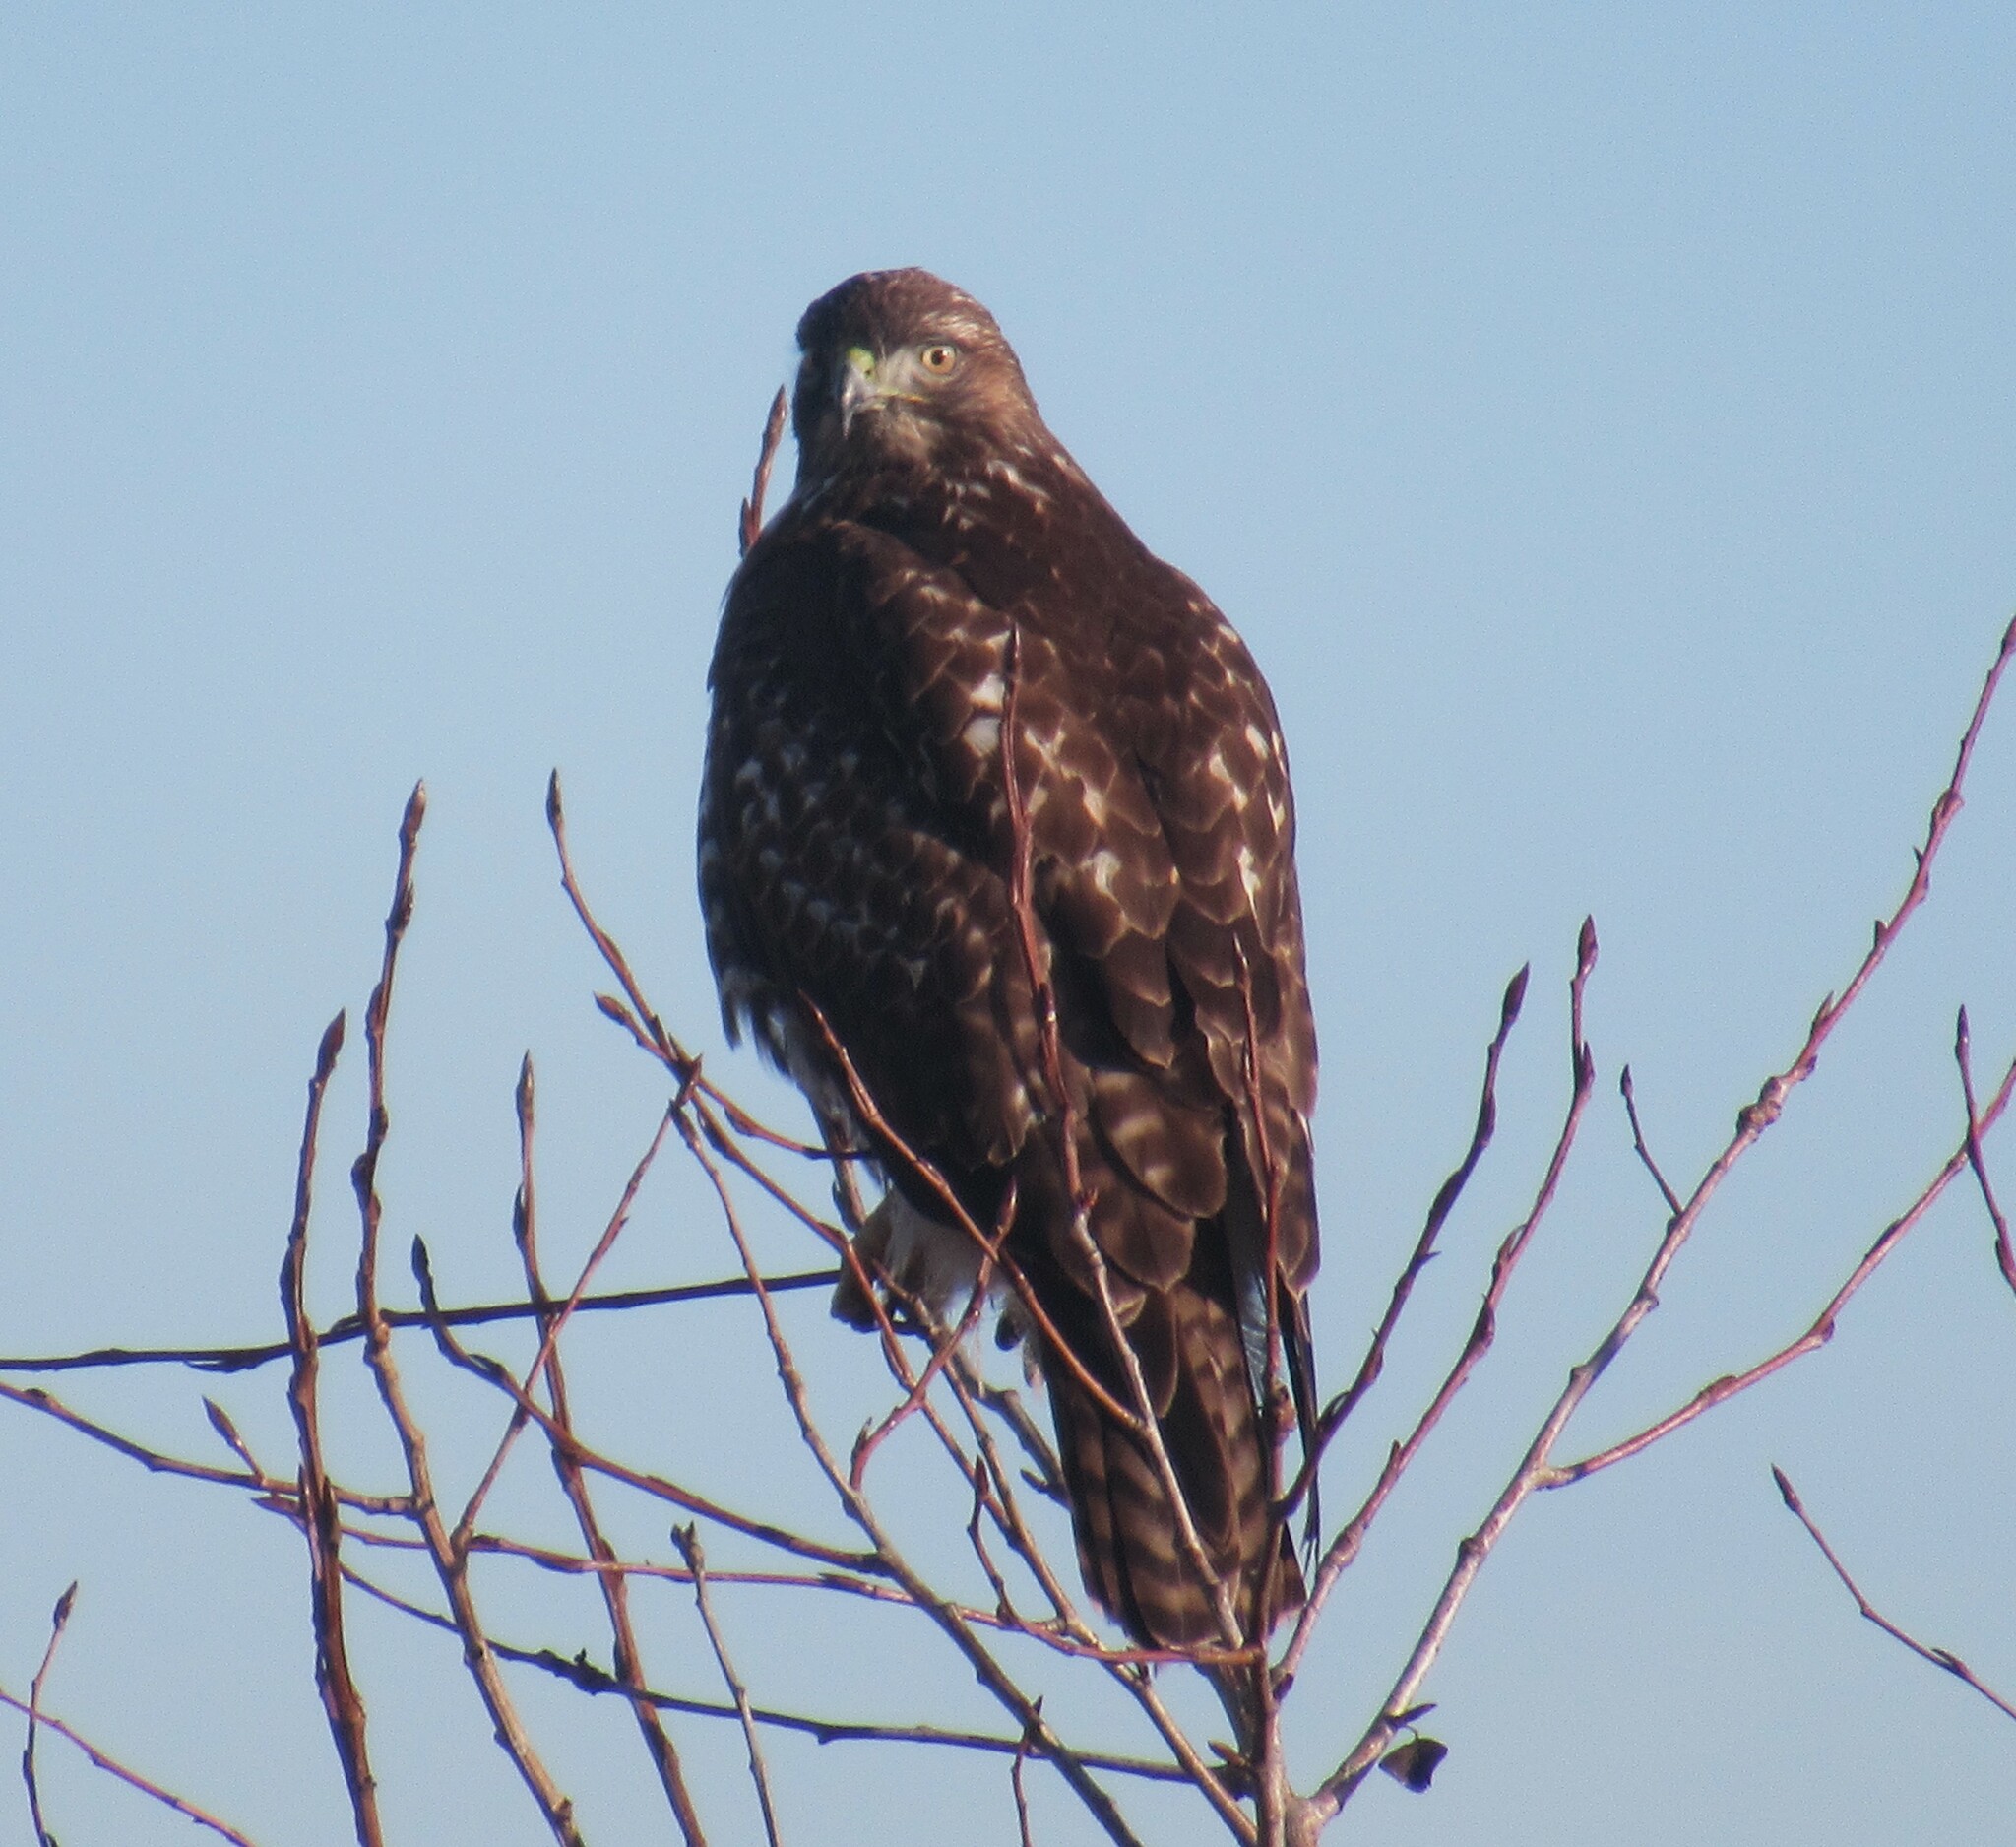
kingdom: Animalia
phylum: Chordata
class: Aves
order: Accipitriformes
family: Accipitridae
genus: Buteo
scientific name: Buteo jamaicensis
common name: Red-tailed hawk
